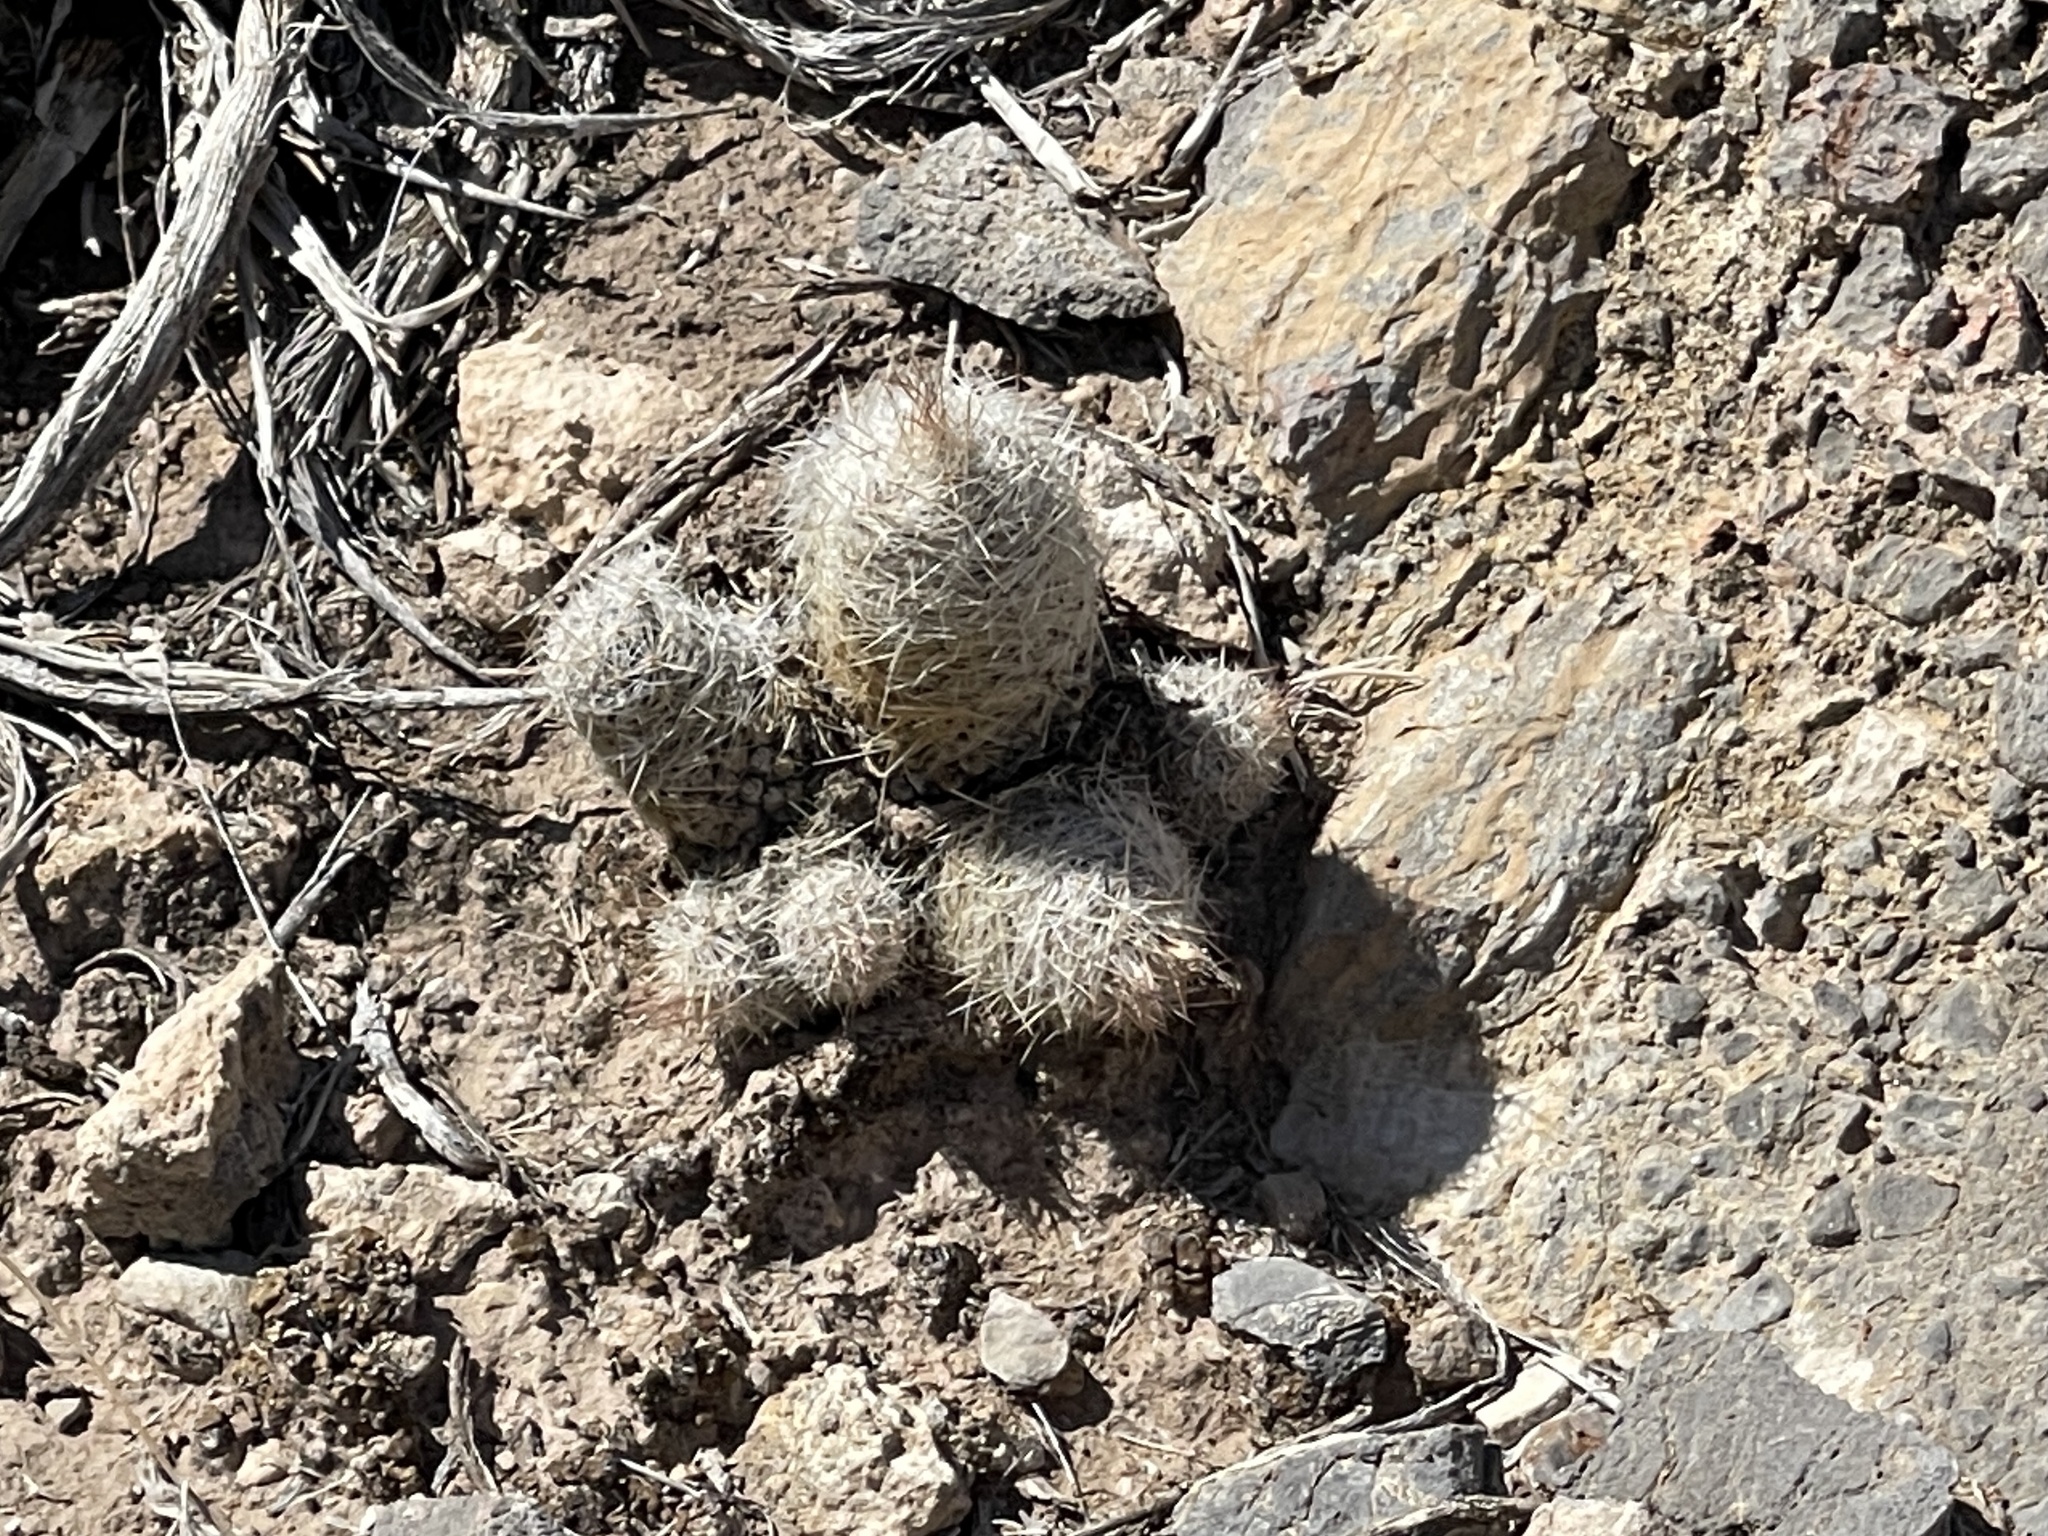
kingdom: Plantae
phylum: Tracheophyta
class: Magnoliopsida
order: Caryophyllales
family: Cactaceae
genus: Pelecyphora
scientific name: Pelecyphora tuberculosa
